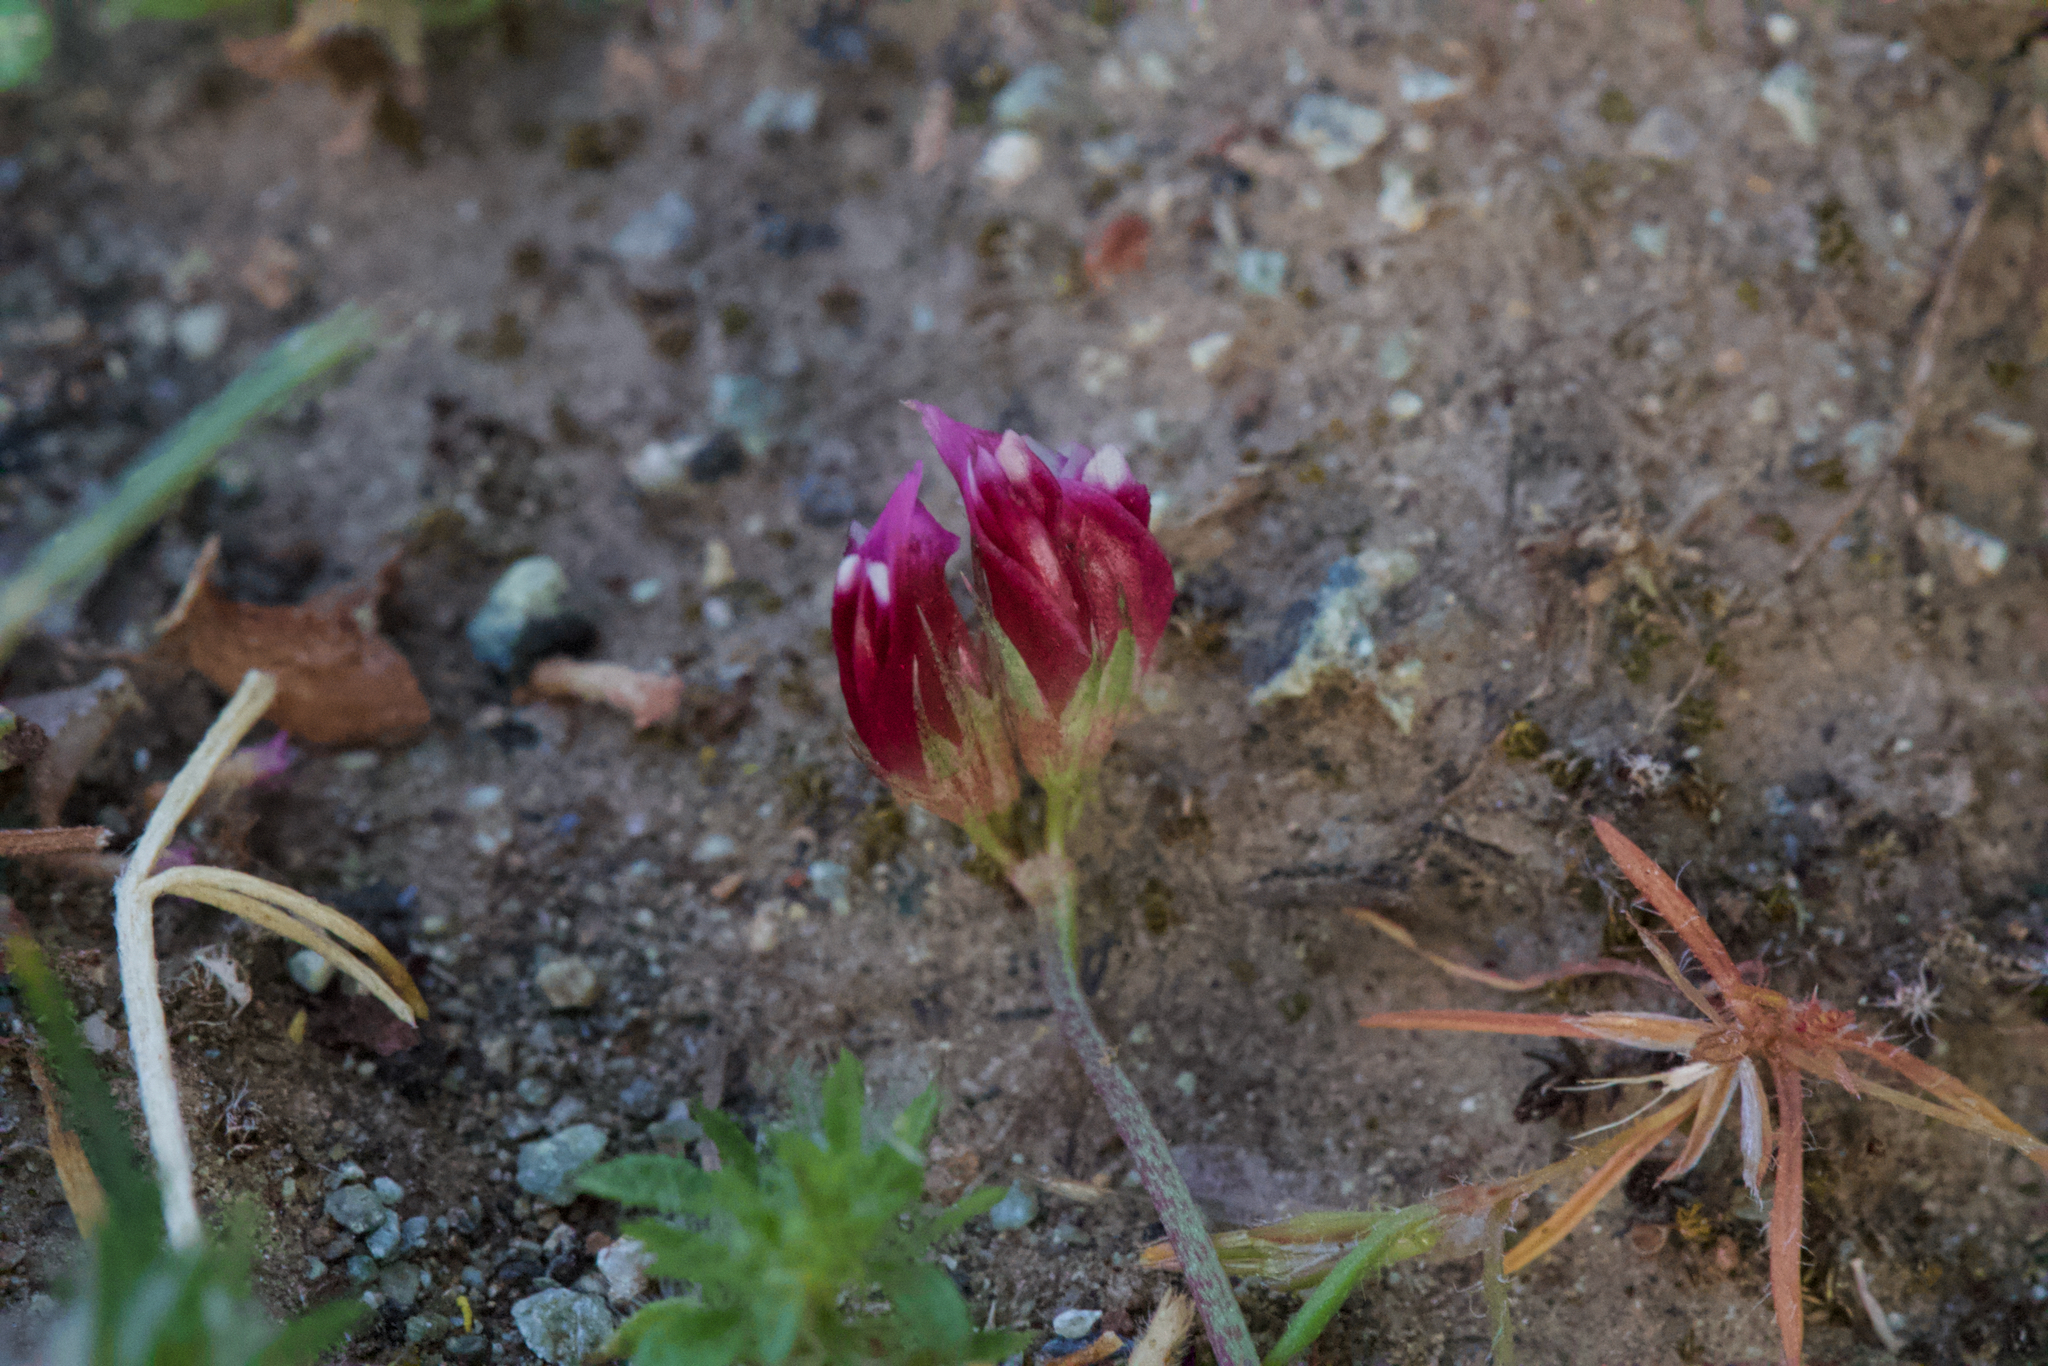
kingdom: Plantae
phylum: Tracheophyta
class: Magnoliopsida
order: Fabales
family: Fabaceae
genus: Trifolium
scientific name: Trifolium gracilentum
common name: Slender clover
